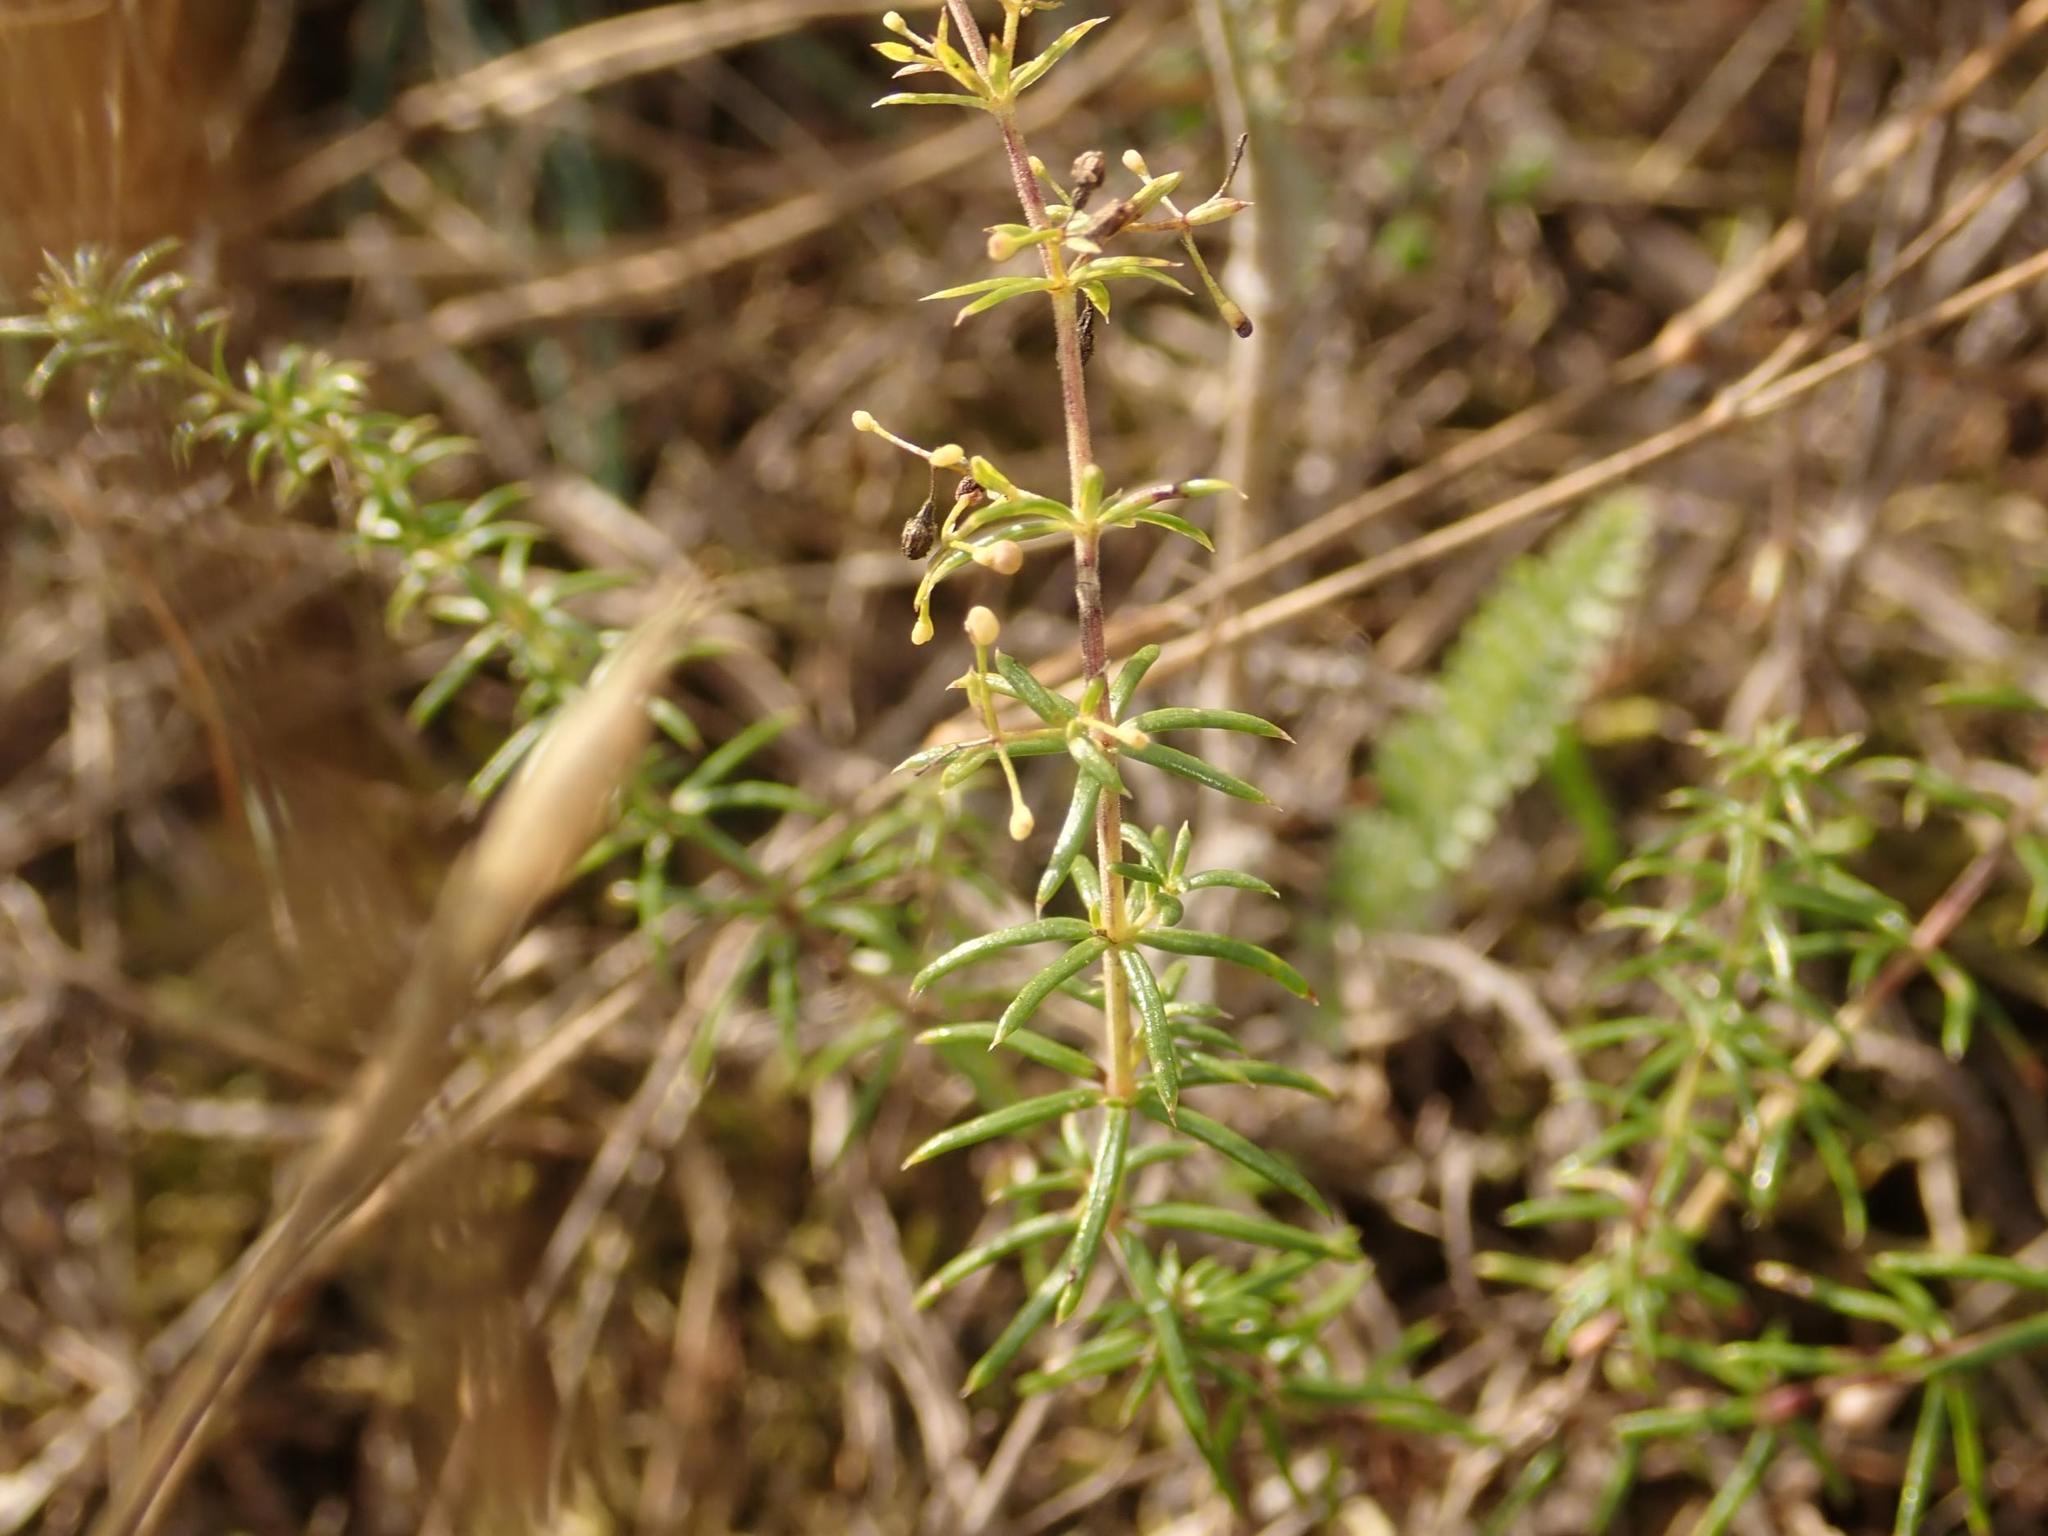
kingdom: Plantae
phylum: Tracheophyta
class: Magnoliopsida
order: Gentianales
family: Rubiaceae
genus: Galium
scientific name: Galium verum
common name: Lady's bedstraw
